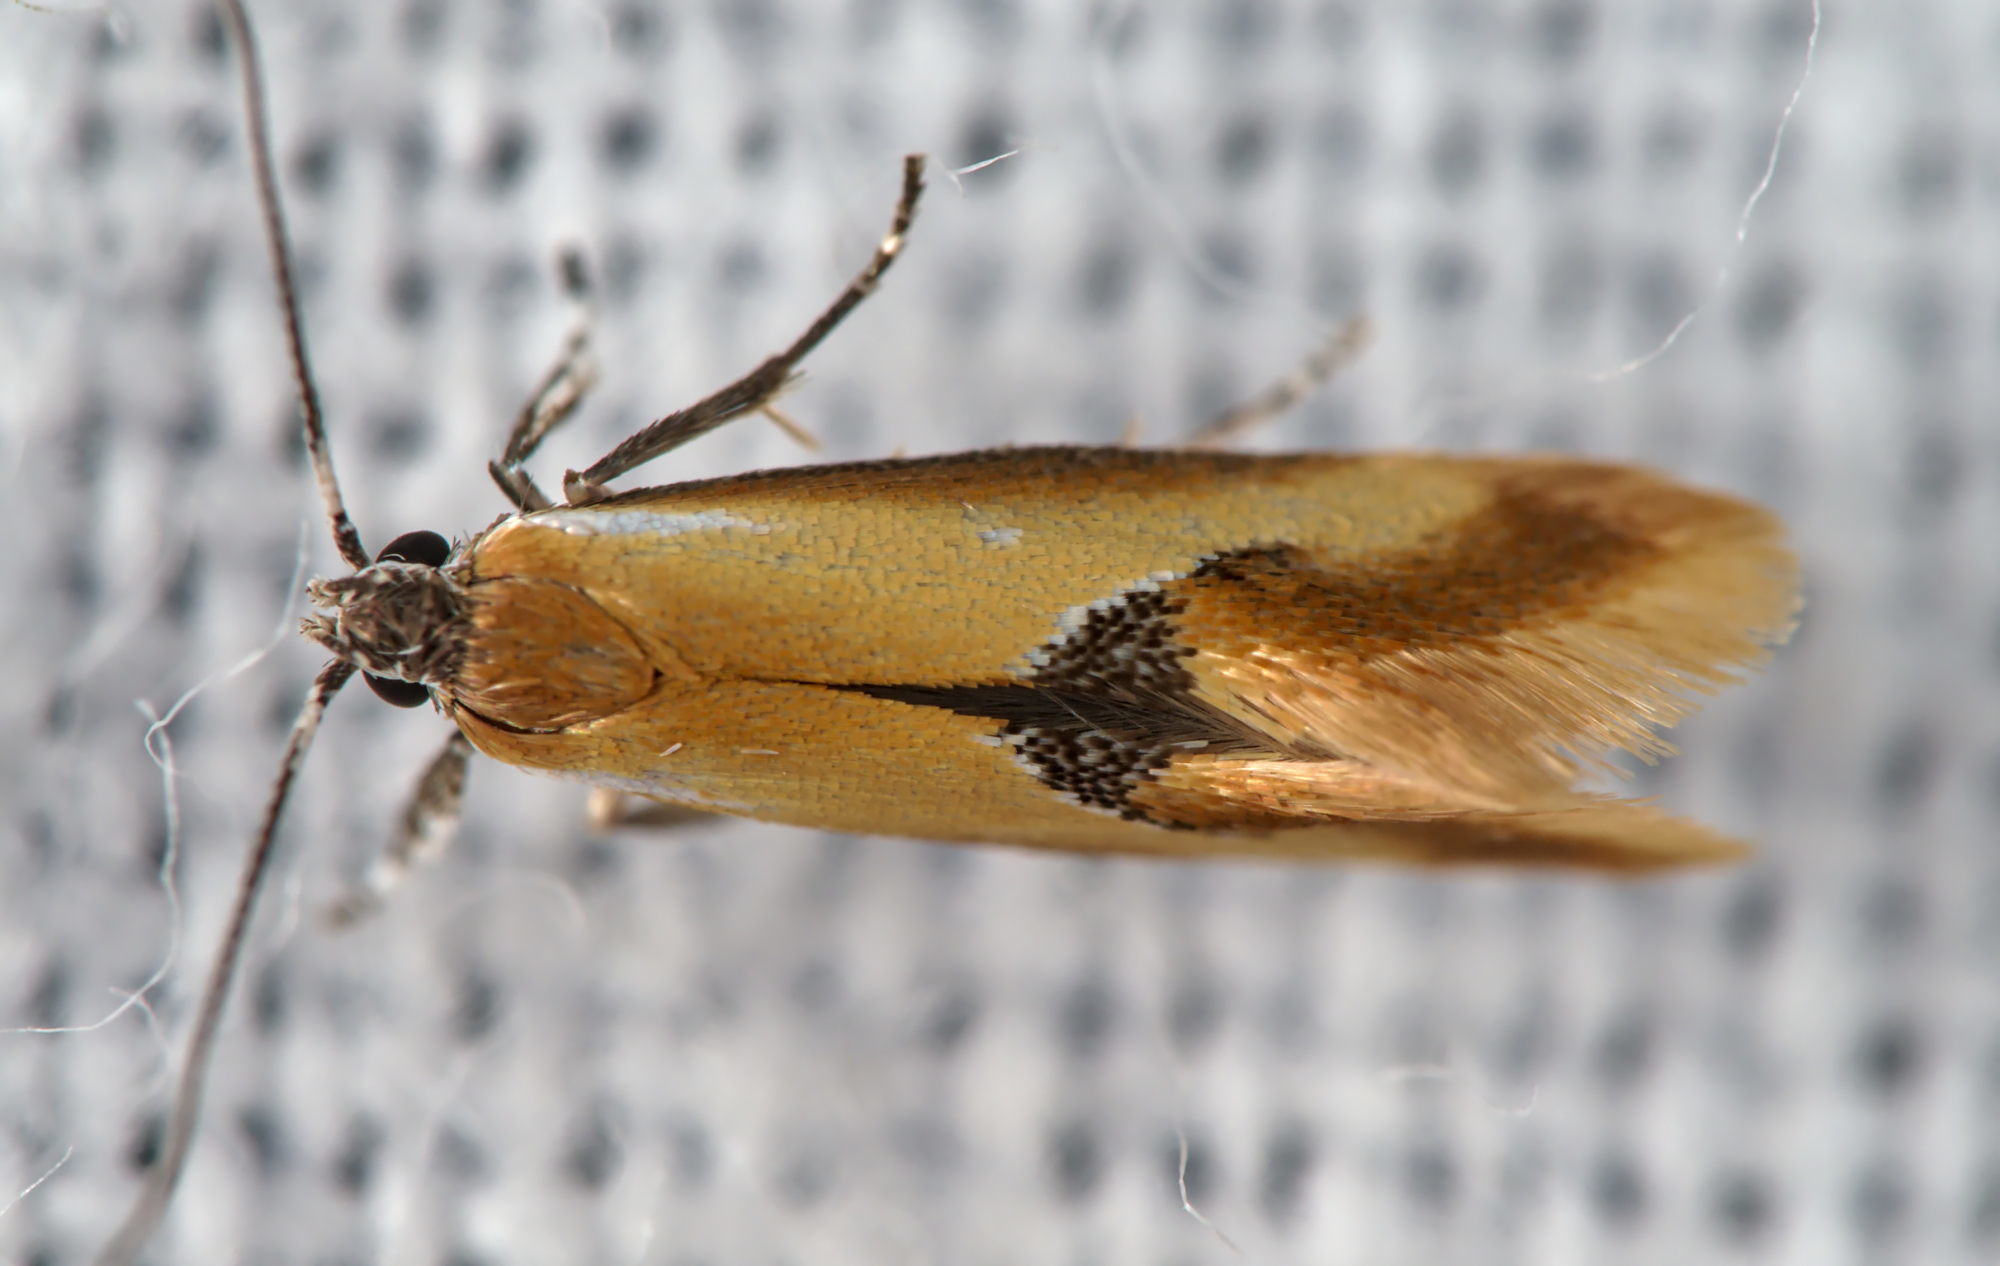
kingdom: Animalia
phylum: Arthropoda
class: Insecta
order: Lepidoptera
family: Oecophoridae
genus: Batia
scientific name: Batia lunaris
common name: Moth
